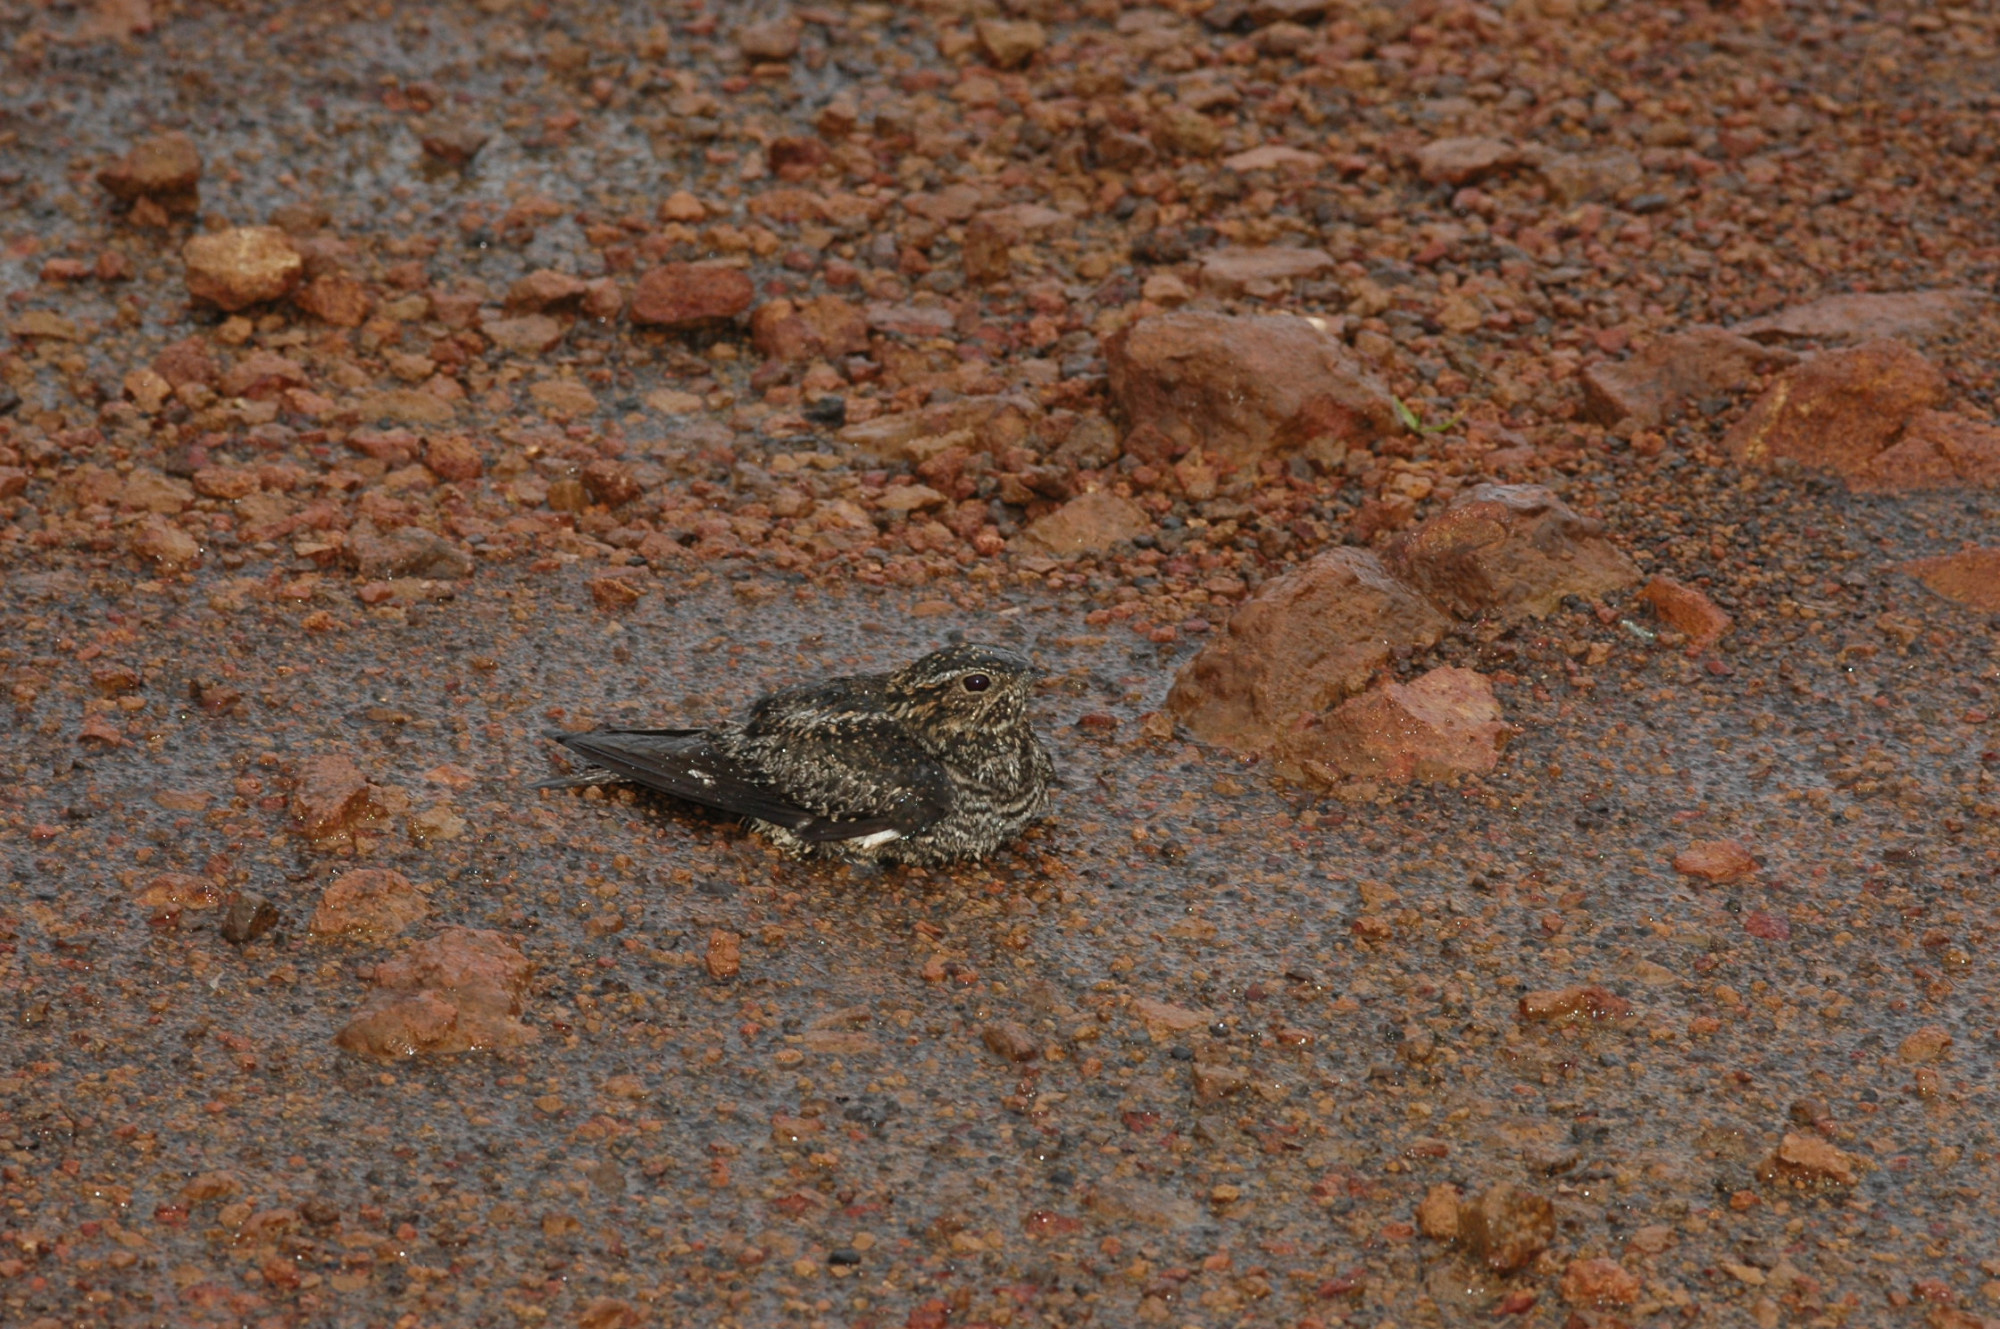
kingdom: Animalia
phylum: Chordata
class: Aves
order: Caprimulgiformes
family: Caprimulgidae
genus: Chordeiles
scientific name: Chordeiles minor
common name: Common nighthawk
